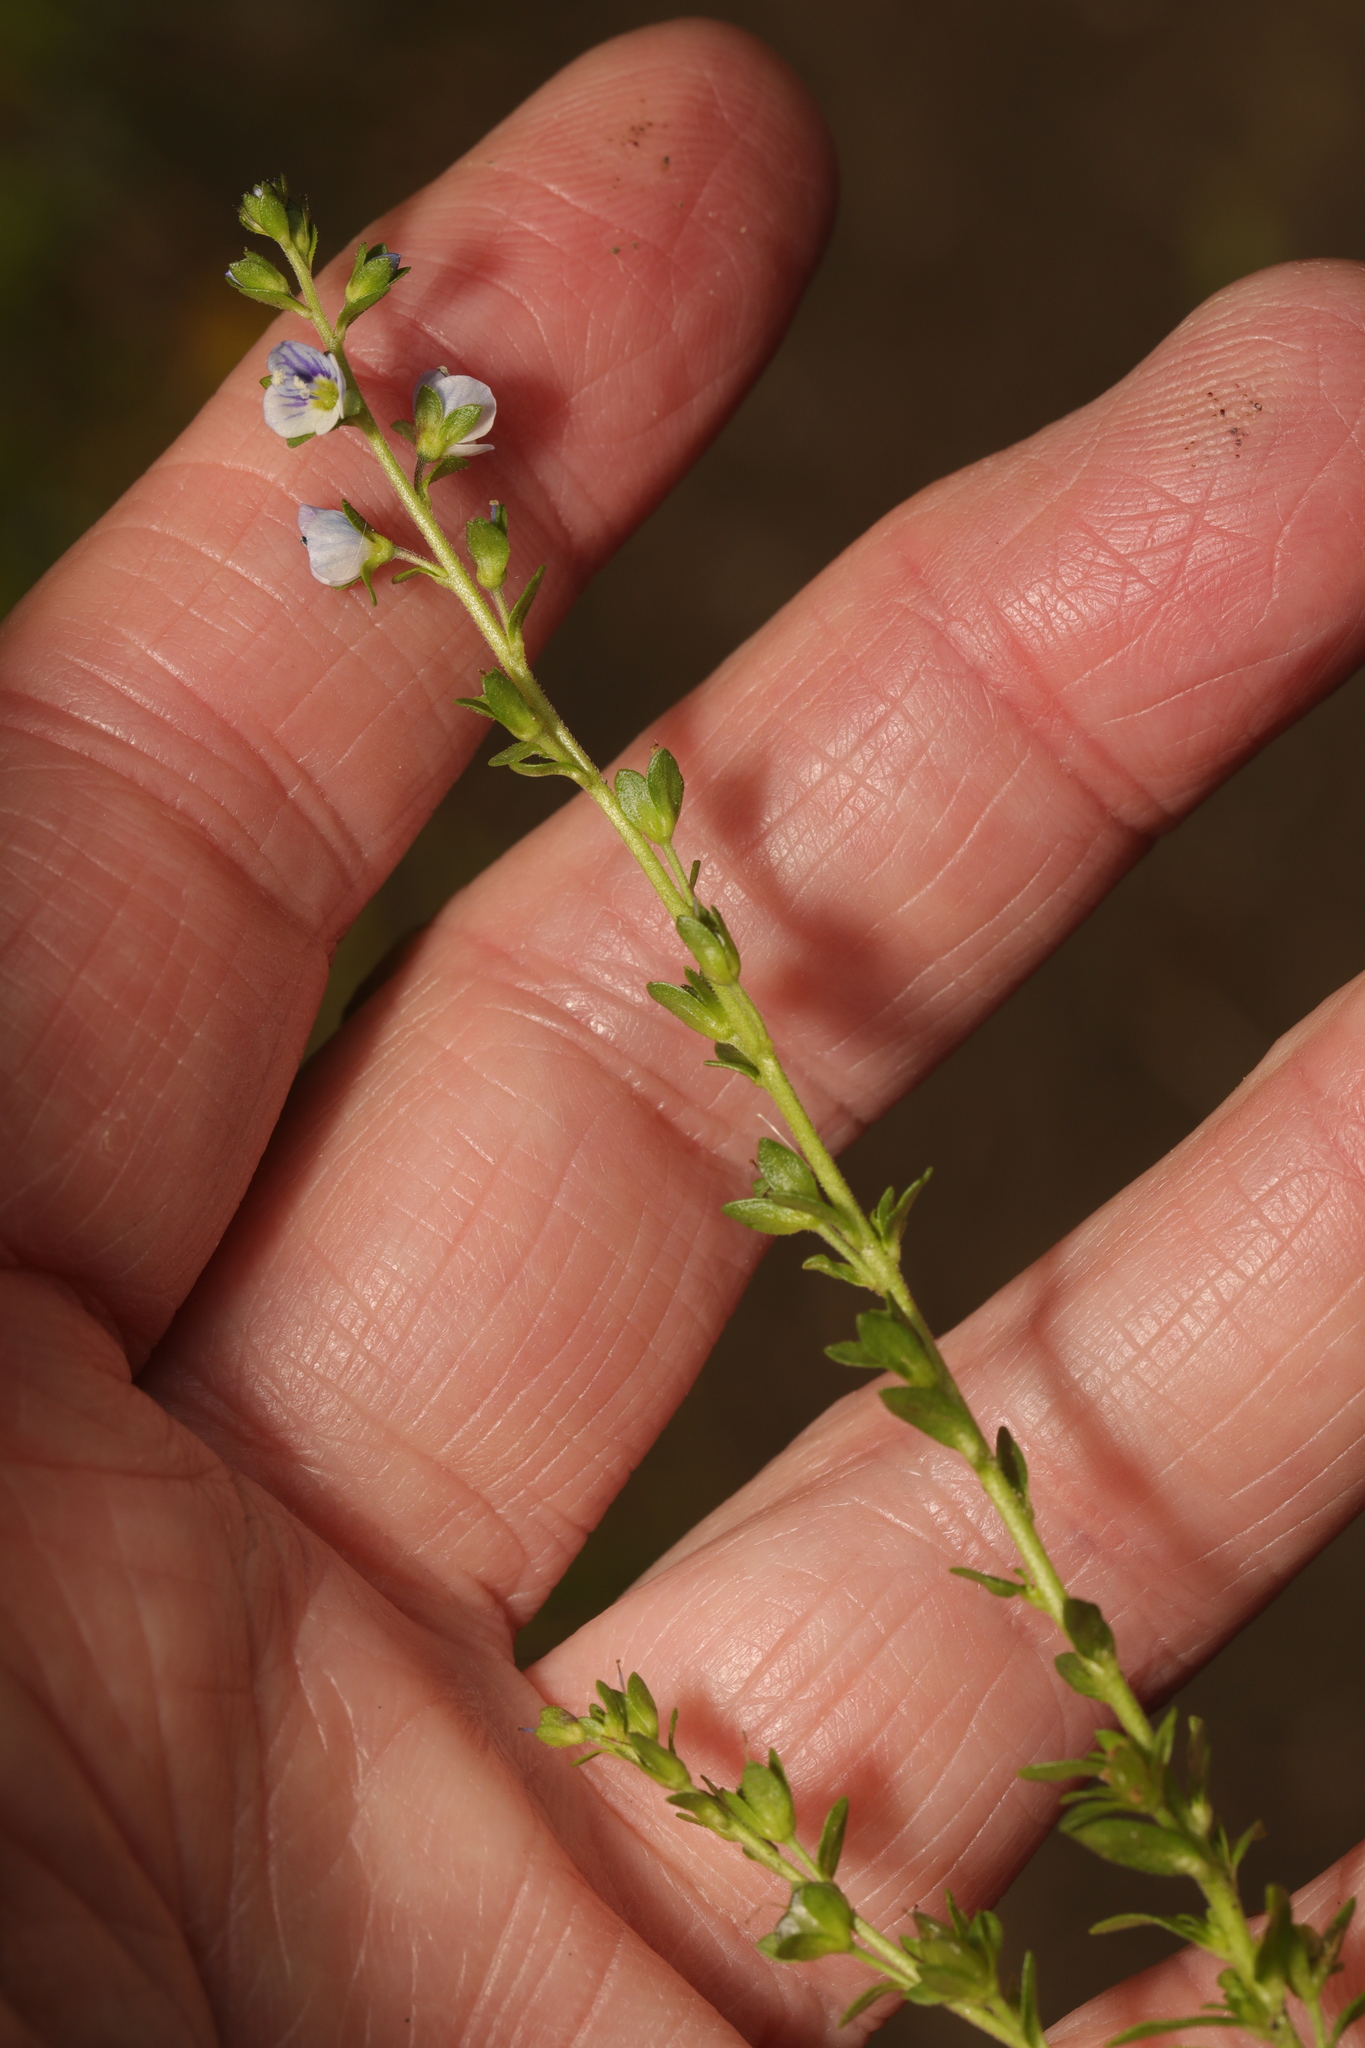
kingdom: Plantae
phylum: Tracheophyta
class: Magnoliopsida
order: Lamiales
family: Plantaginaceae
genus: Veronica
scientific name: Veronica serpyllifolia
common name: Thyme-leaved speedwell
